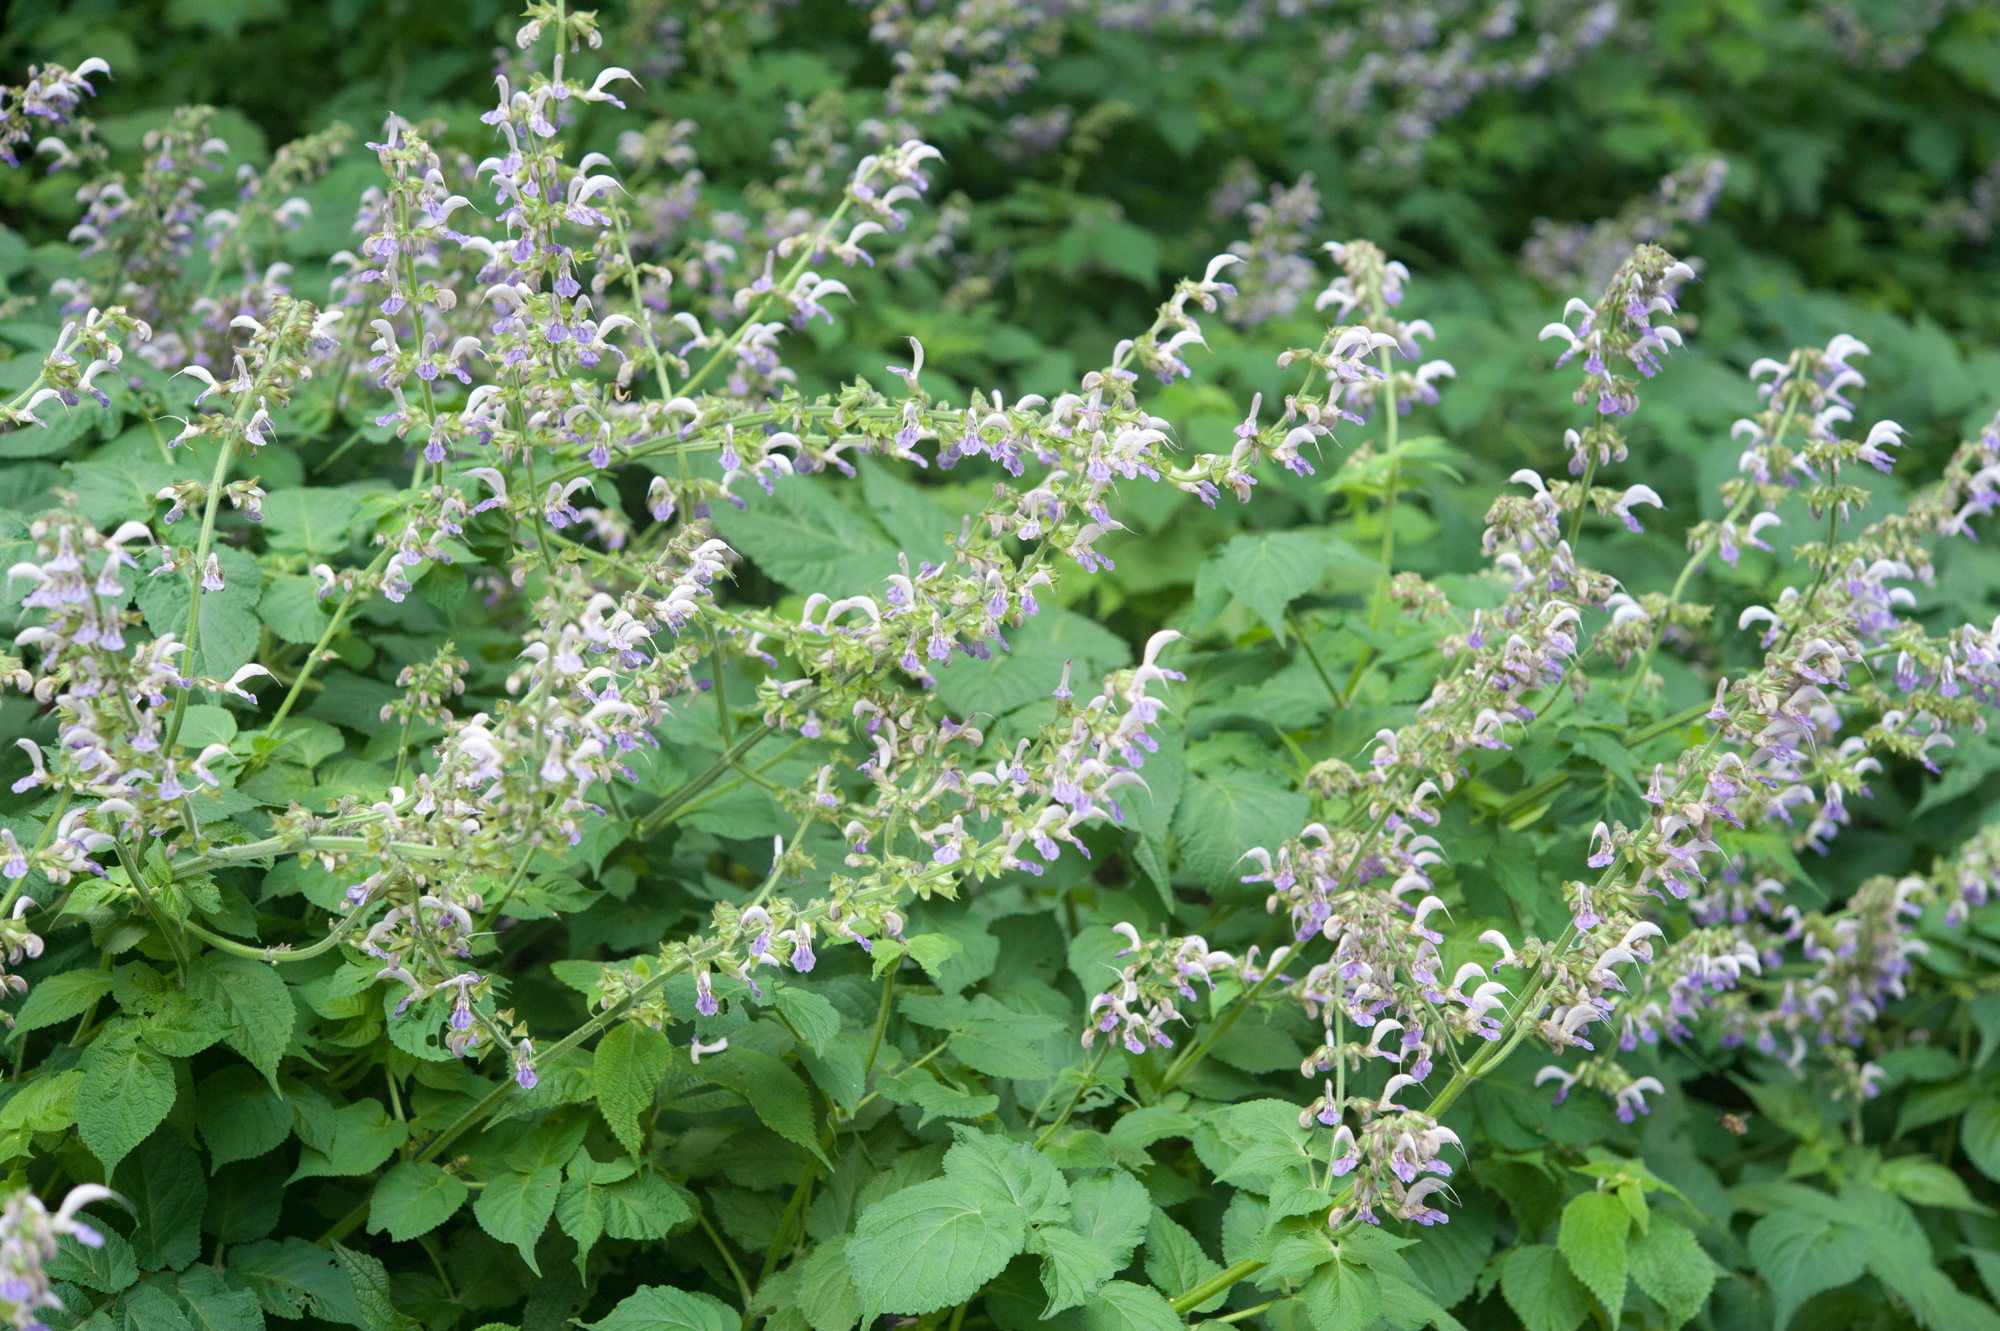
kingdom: Plantae
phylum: Tracheophyta
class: Magnoliopsida
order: Lamiales
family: Lamiaceae
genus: Salvia
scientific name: Salvia bowleyana
